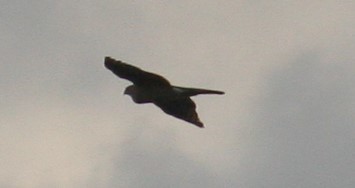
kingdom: Animalia
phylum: Chordata
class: Aves
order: Accipitriformes
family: Accipitridae
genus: Accipiter
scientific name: Accipiter cooperii
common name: Cooper's hawk
